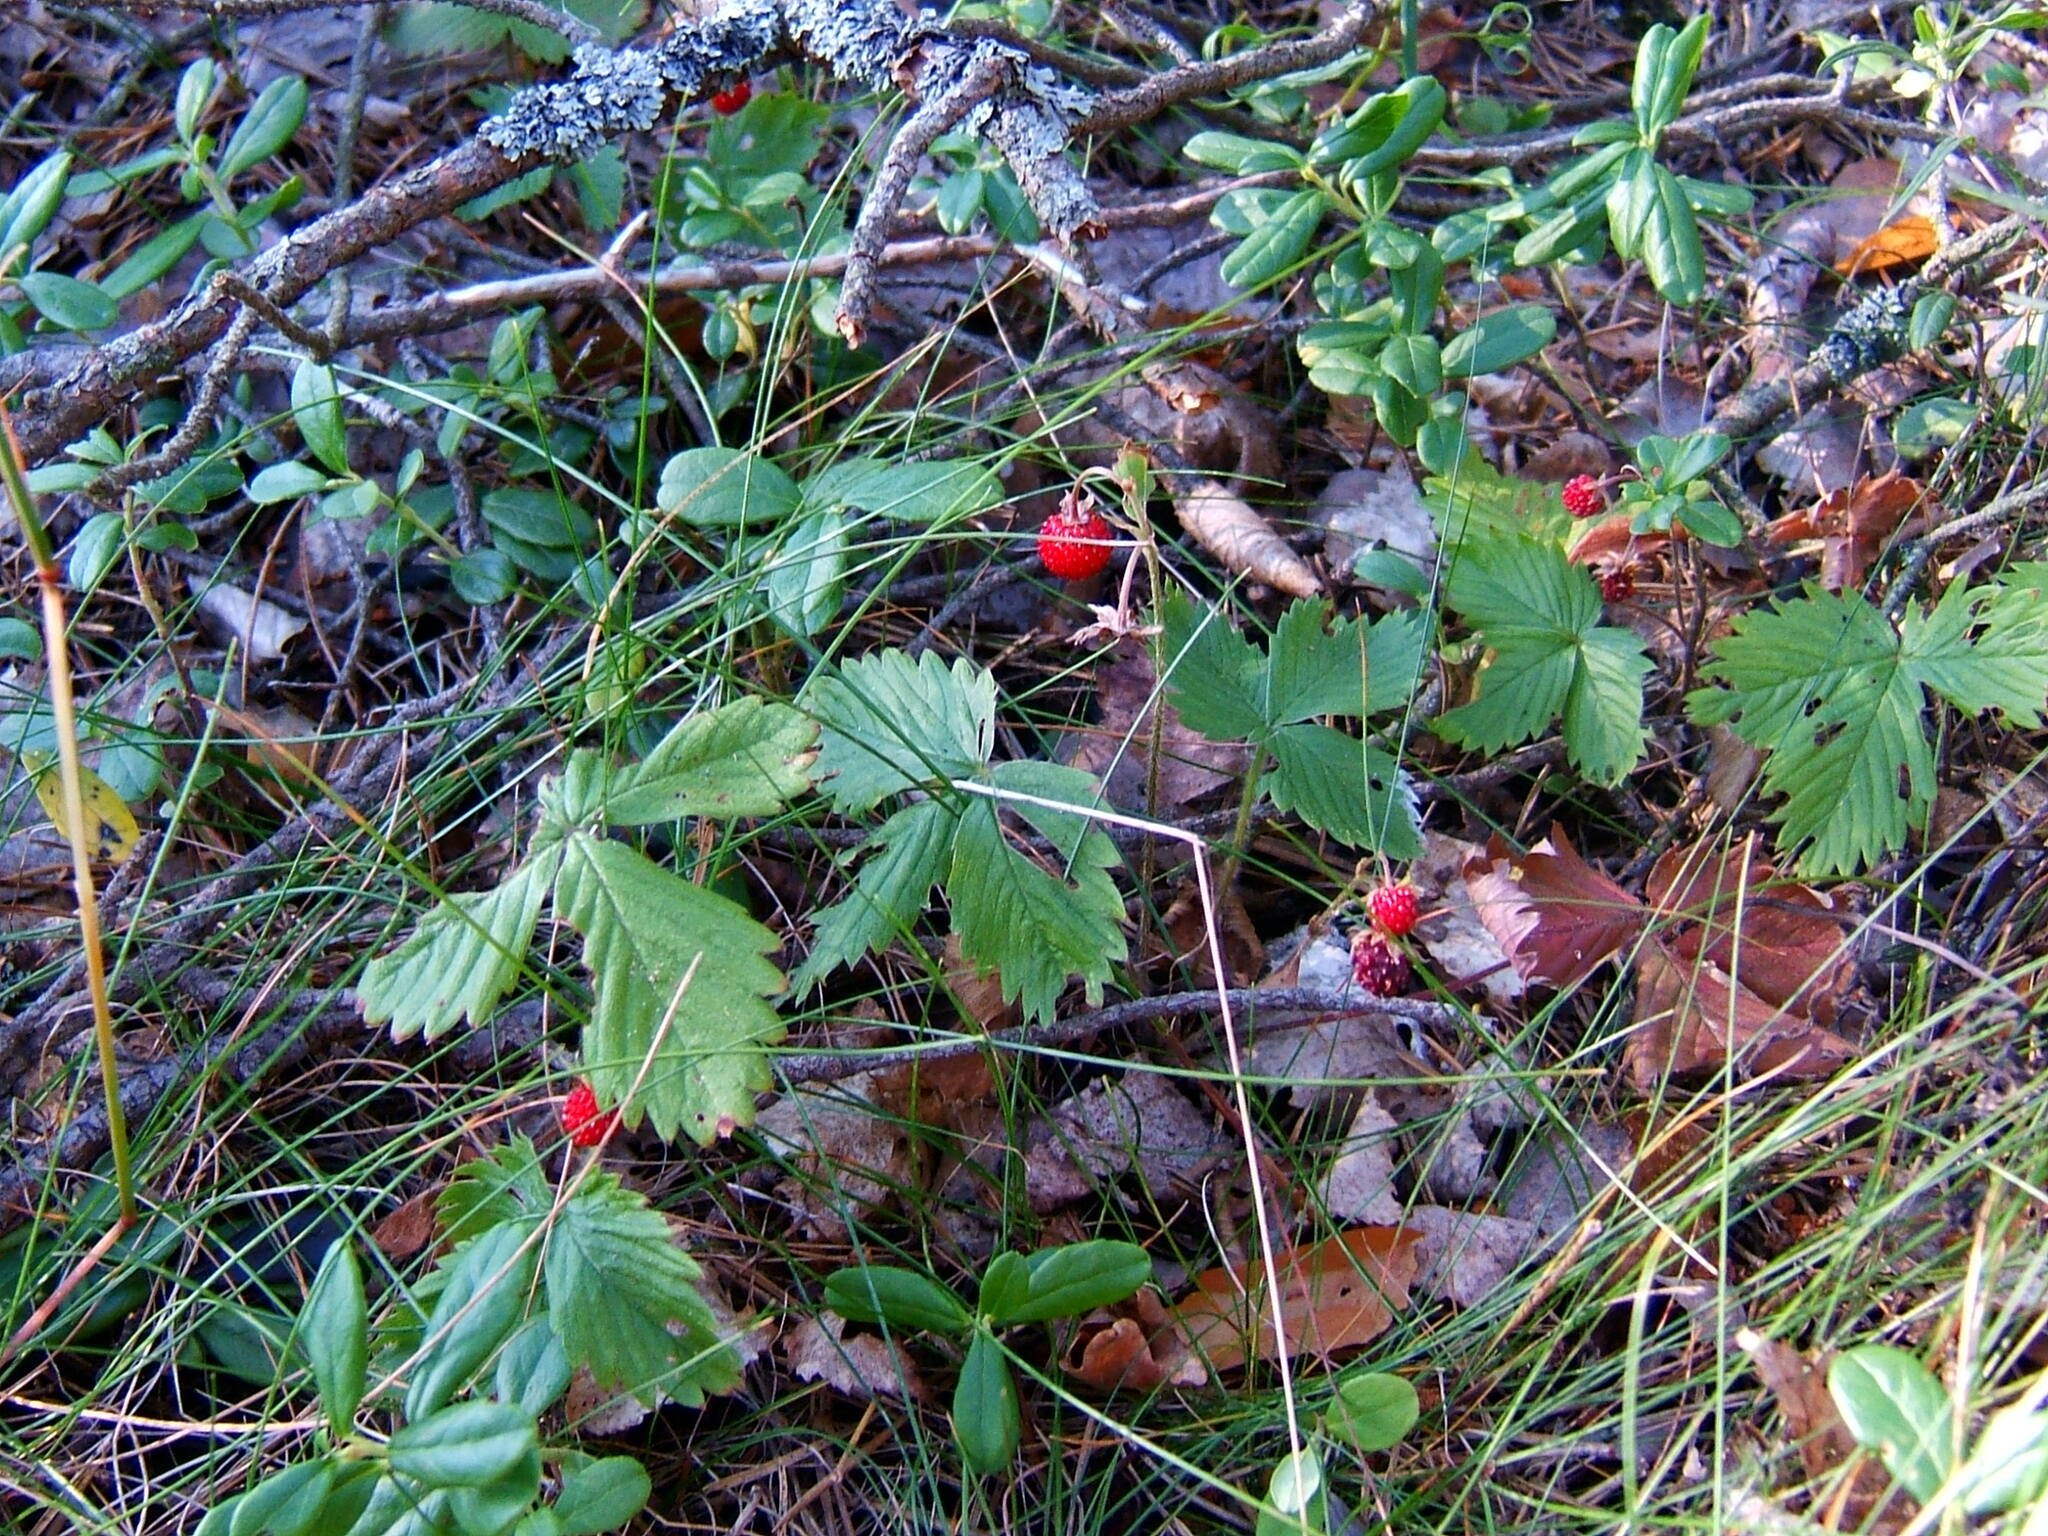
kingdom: Plantae
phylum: Tracheophyta
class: Magnoliopsida
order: Rosales
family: Rosaceae
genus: Fragaria
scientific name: Fragaria vesca
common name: Wild strawberry
